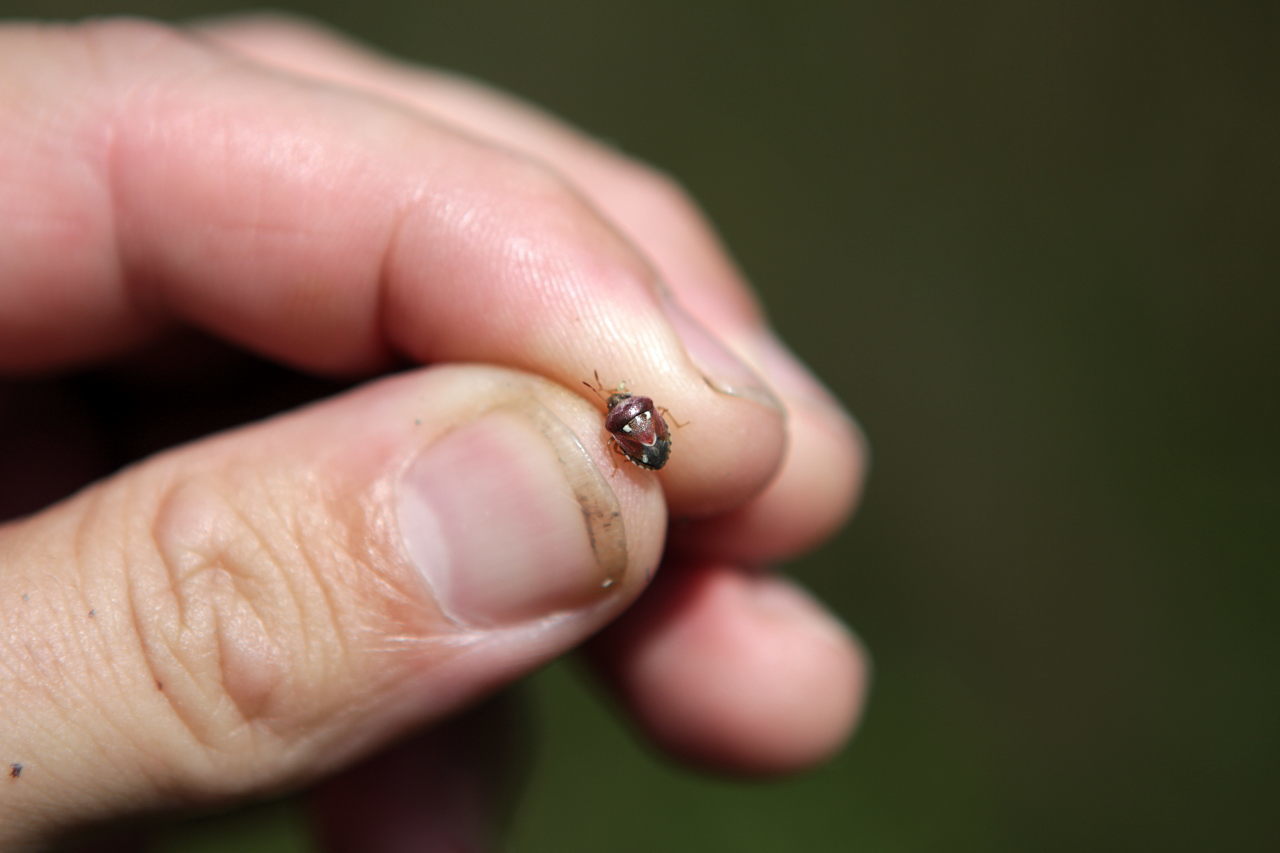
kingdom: Animalia
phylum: Arthropoda
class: Insecta
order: Hemiptera
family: Pentatomidae
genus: Stagonomus
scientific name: Stagonomus bipunctatus
